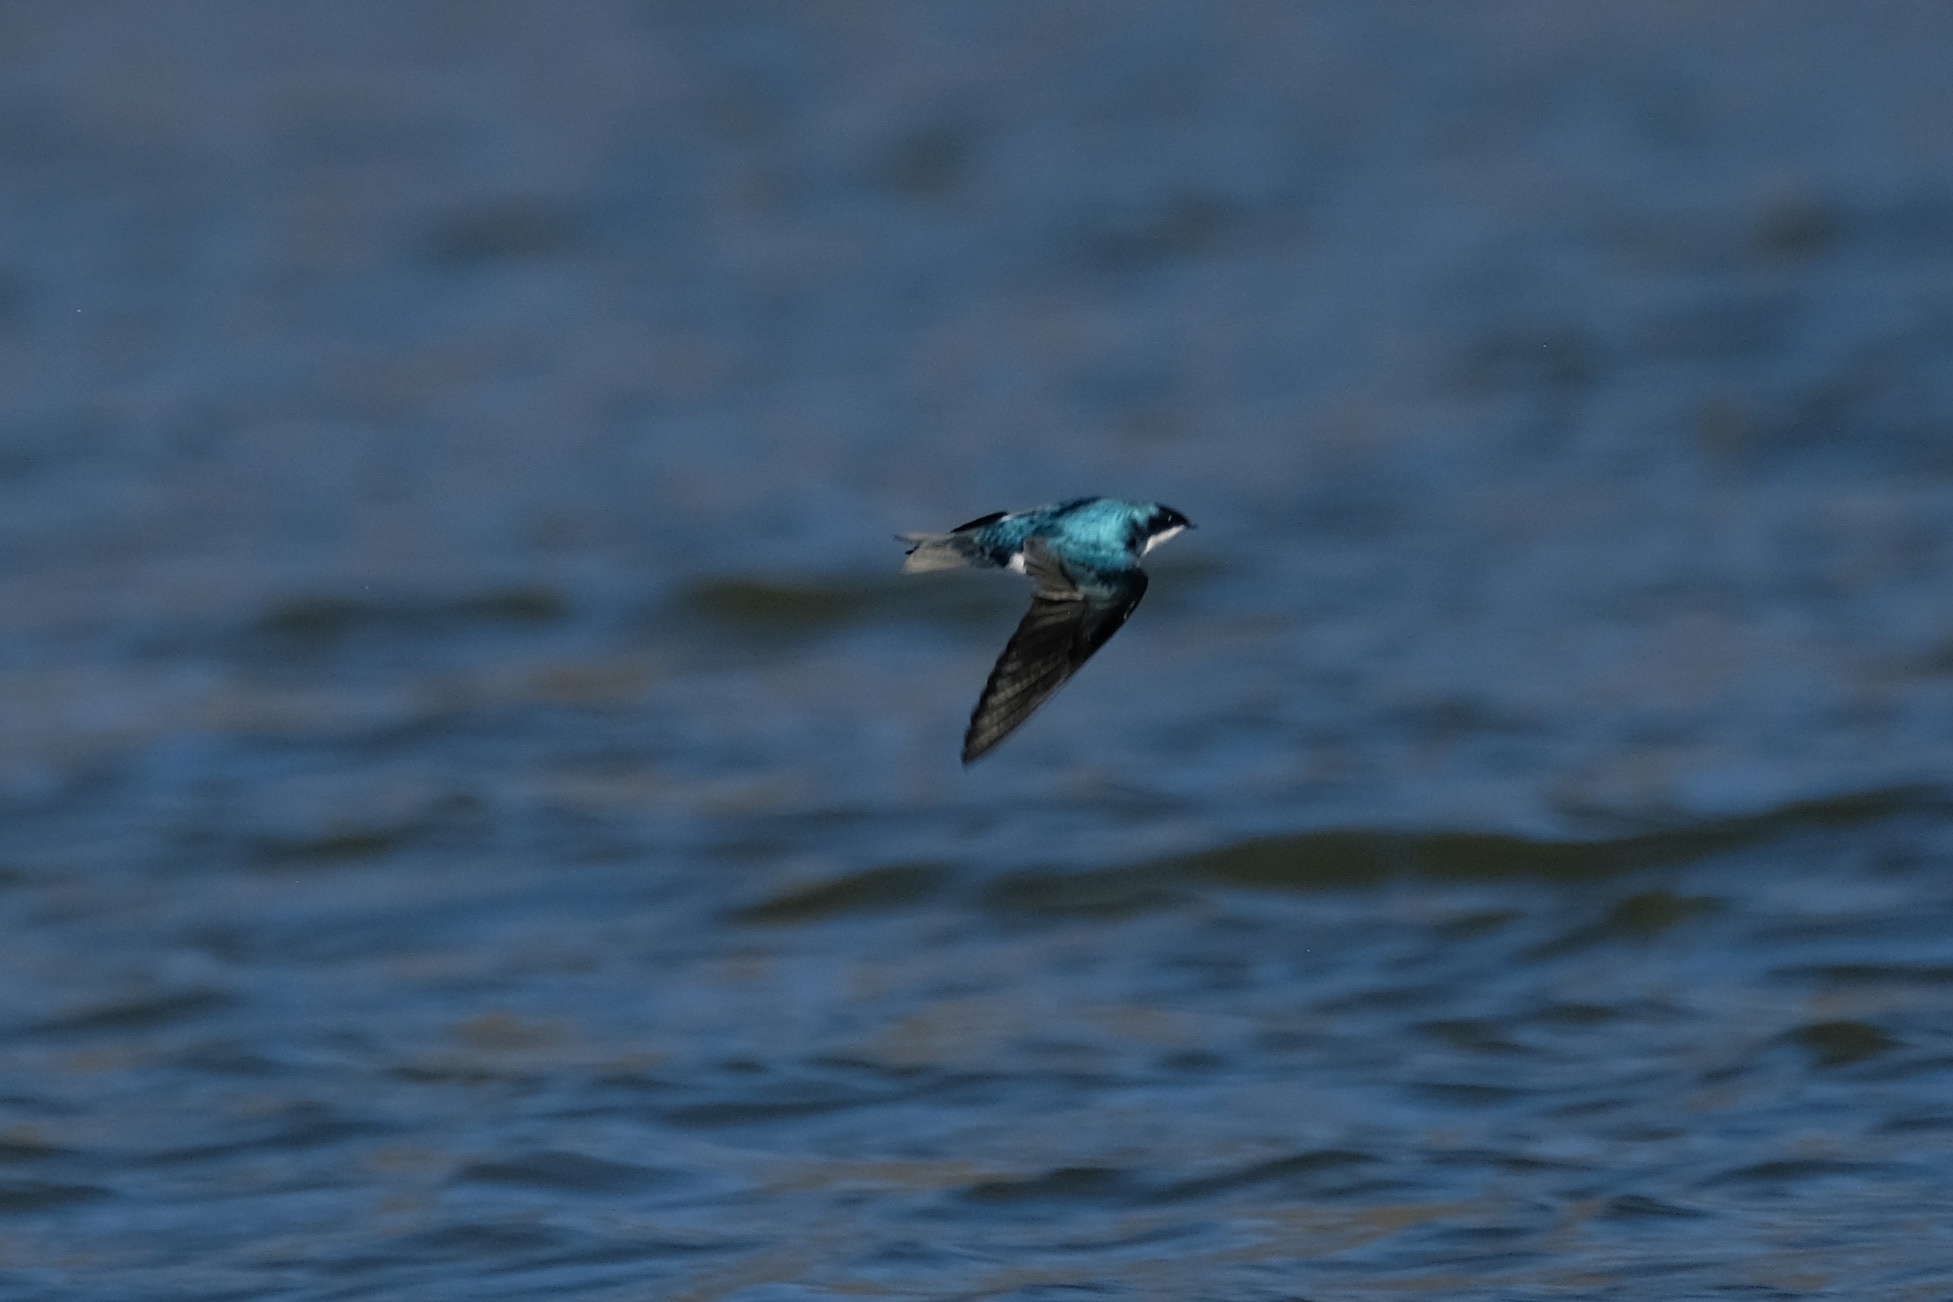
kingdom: Animalia
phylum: Chordata
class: Aves
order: Passeriformes
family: Hirundinidae
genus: Tachycineta
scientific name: Tachycineta bicolor
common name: Tree swallow
